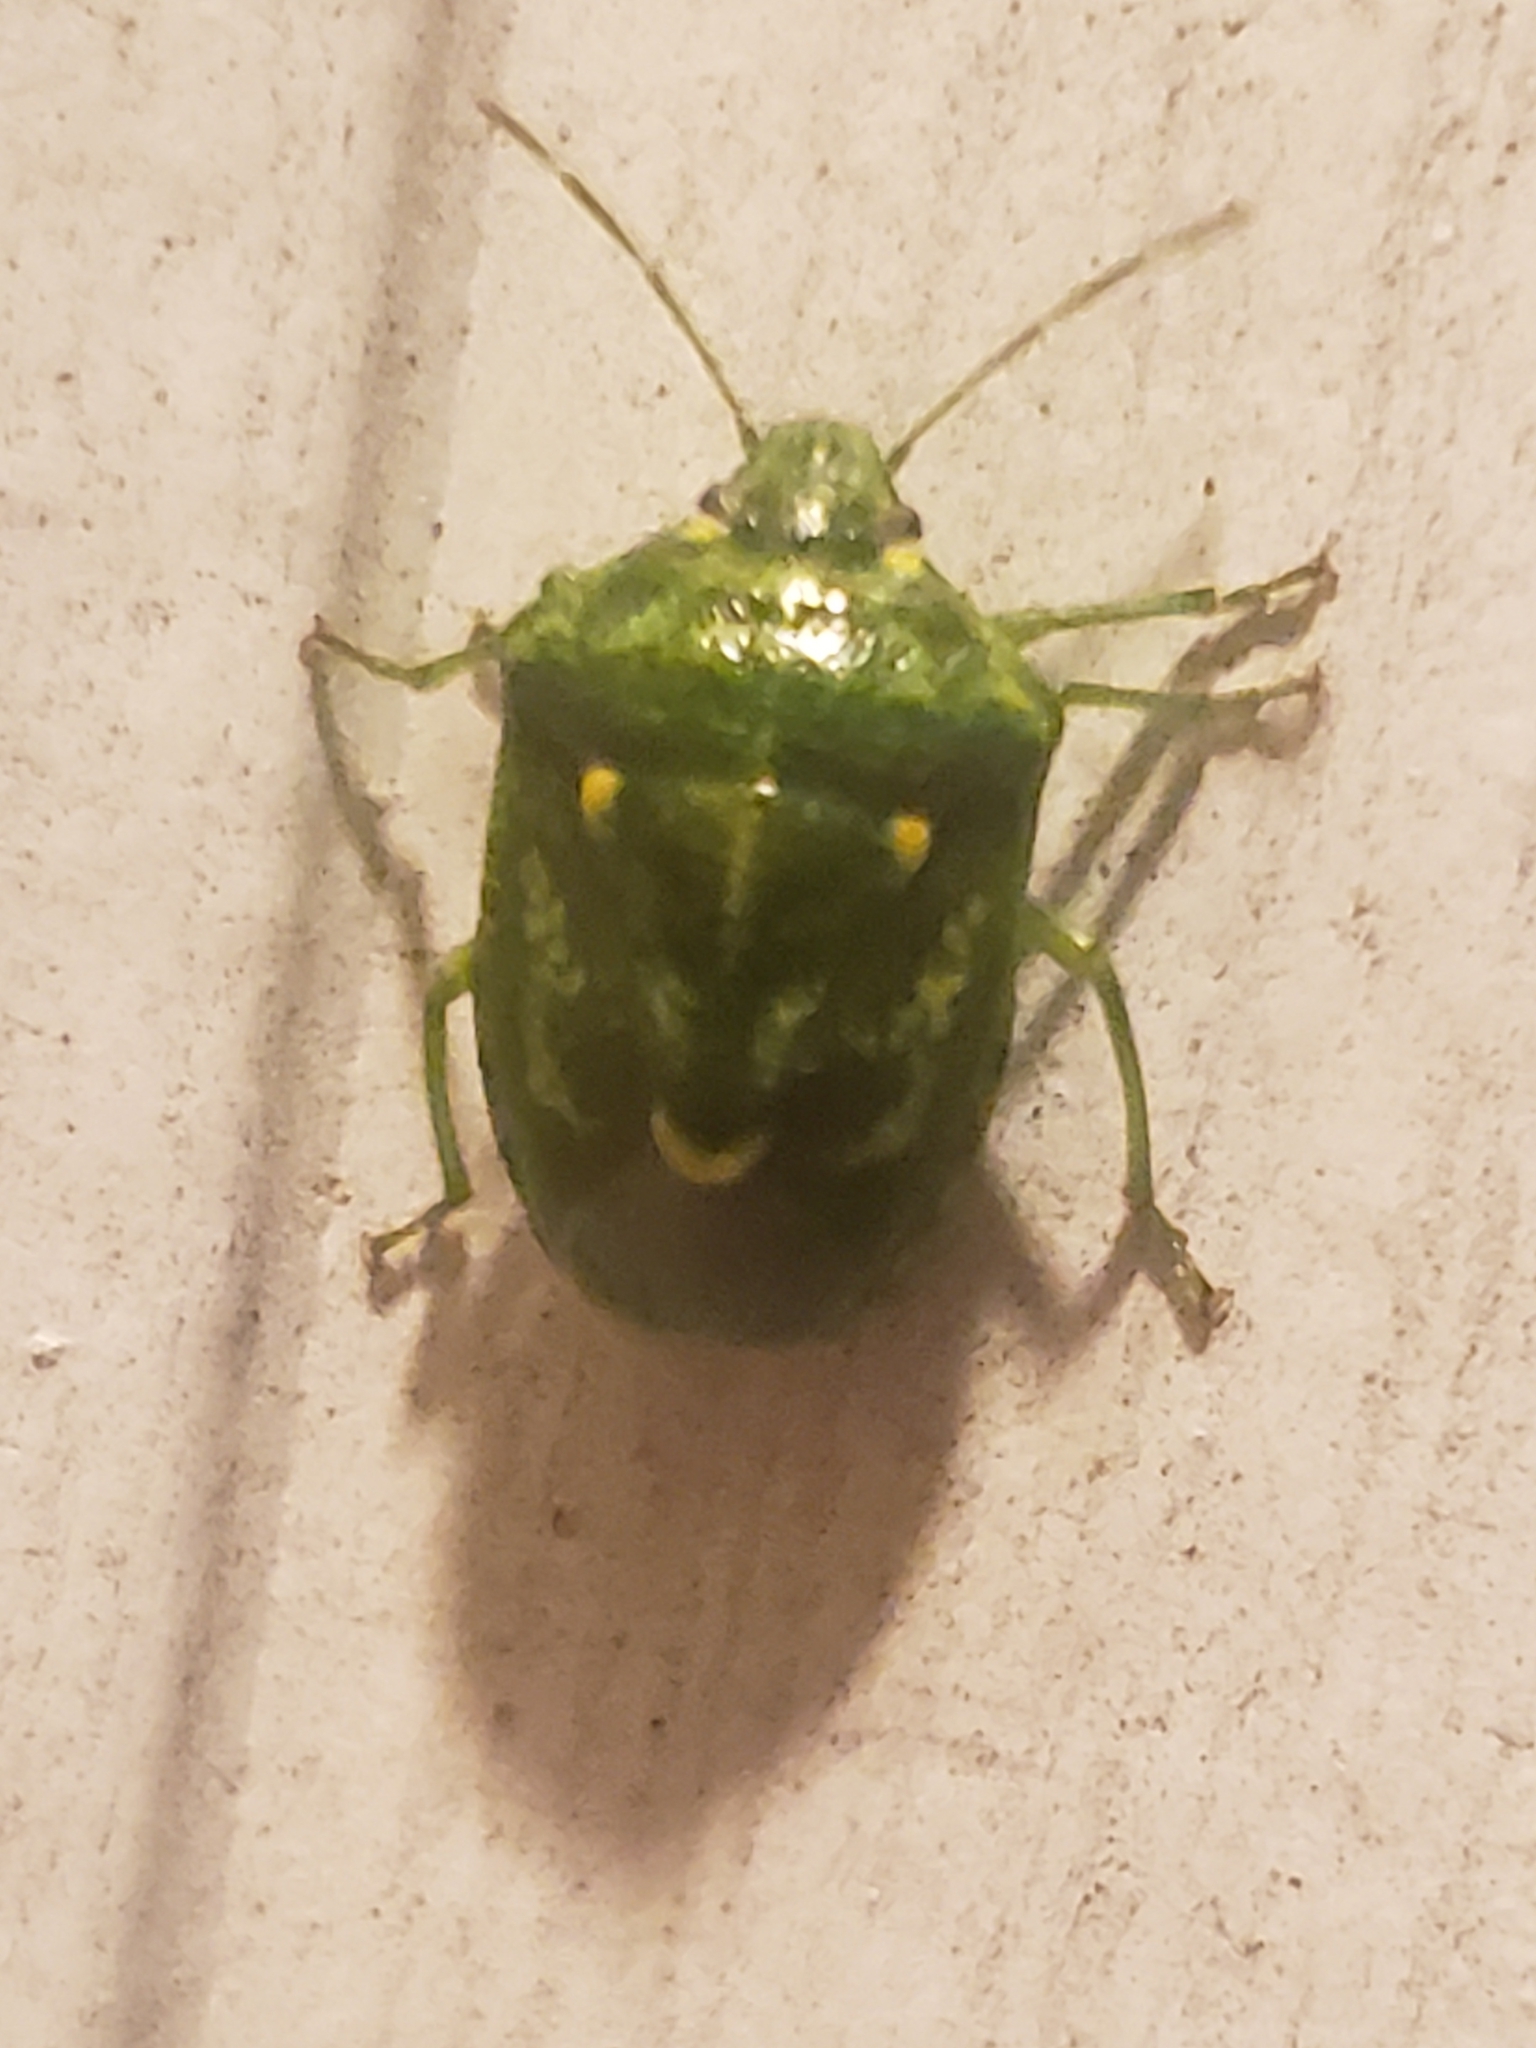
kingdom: Animalia
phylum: Arthropoda
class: Insecta
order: Hemiptera
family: Pentatomidae
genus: Banasa
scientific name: Banasa euchlora
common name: Cedar berry bug
